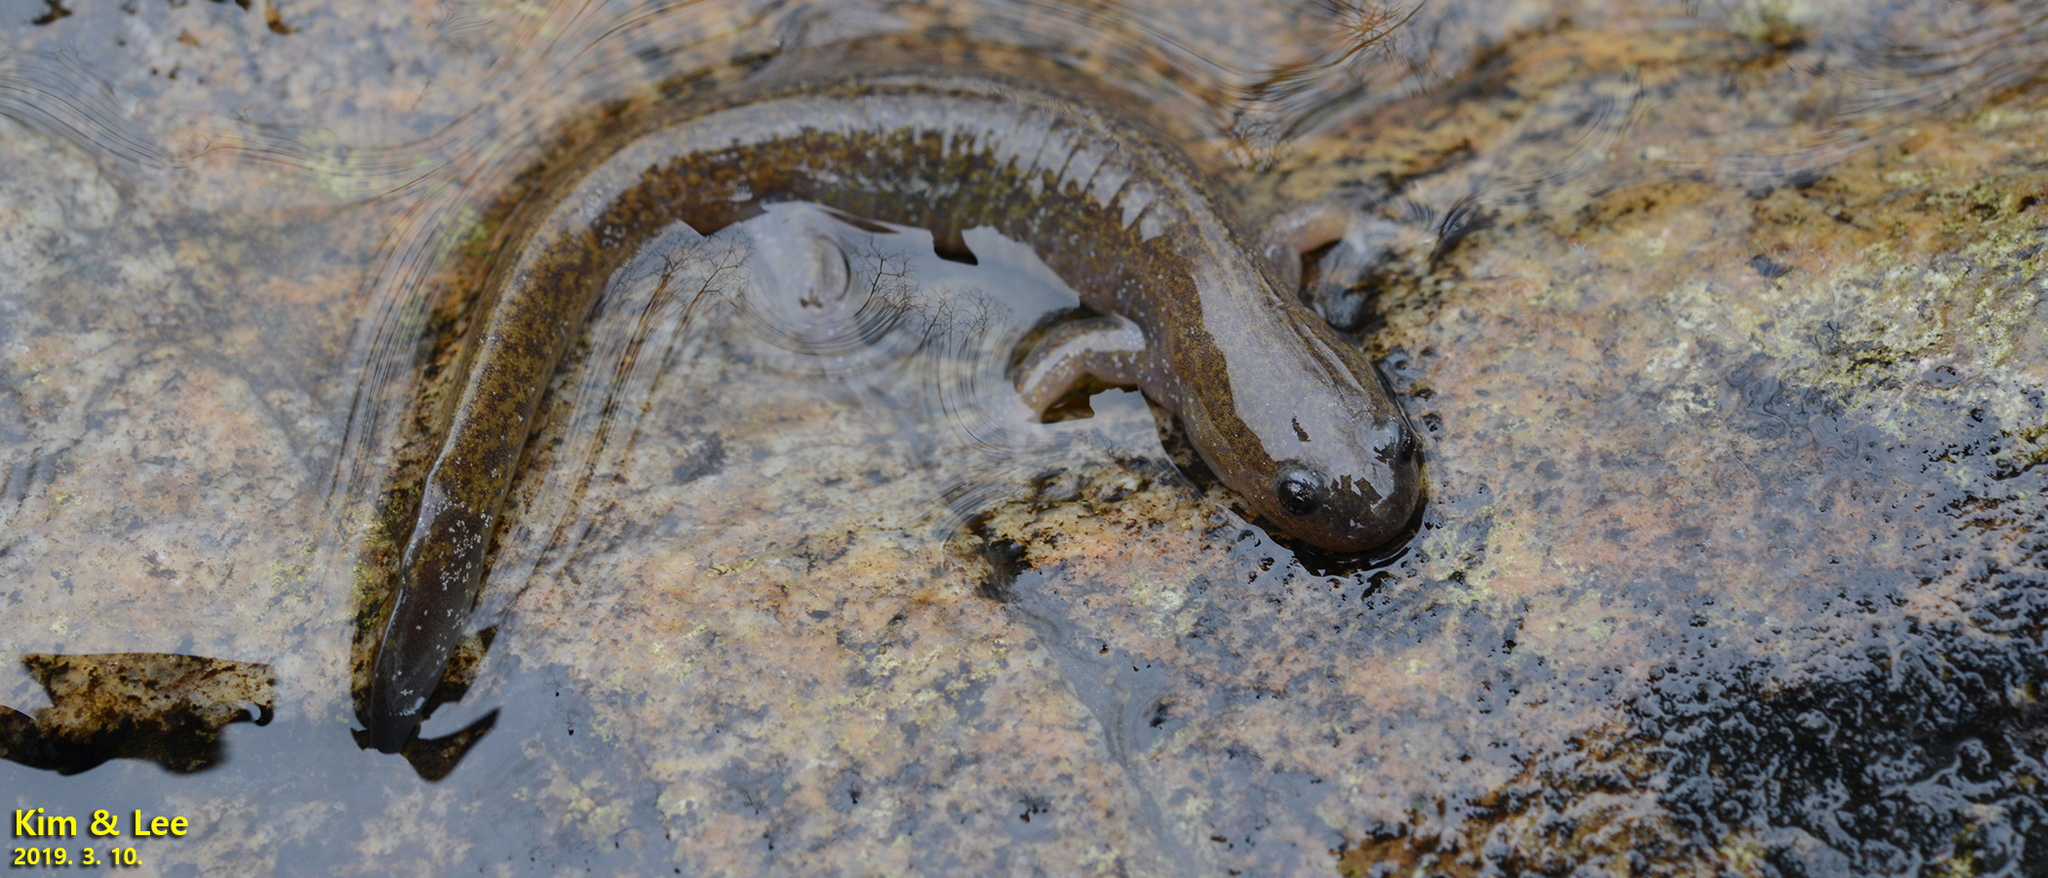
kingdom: Animalia
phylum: Chordata
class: Amphibia
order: Caudata
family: Hynobiidae
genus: Hynobius
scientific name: Hynobius unisacculus
